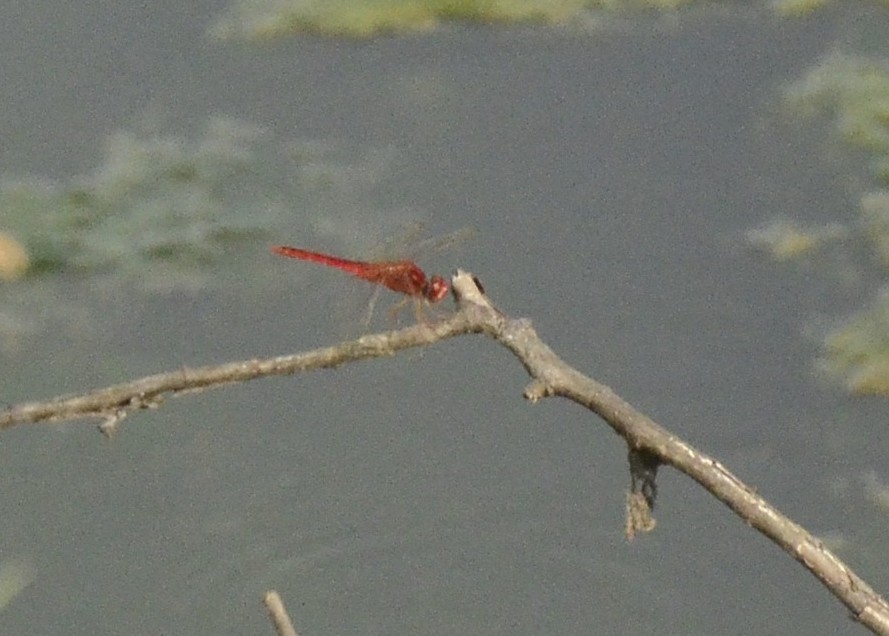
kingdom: Animalia
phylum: Arthropoda
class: Insecta
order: Odonata
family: Libellulidae
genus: Crocothemis
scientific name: Crocothemis servilia
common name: Scarlet skimmer
